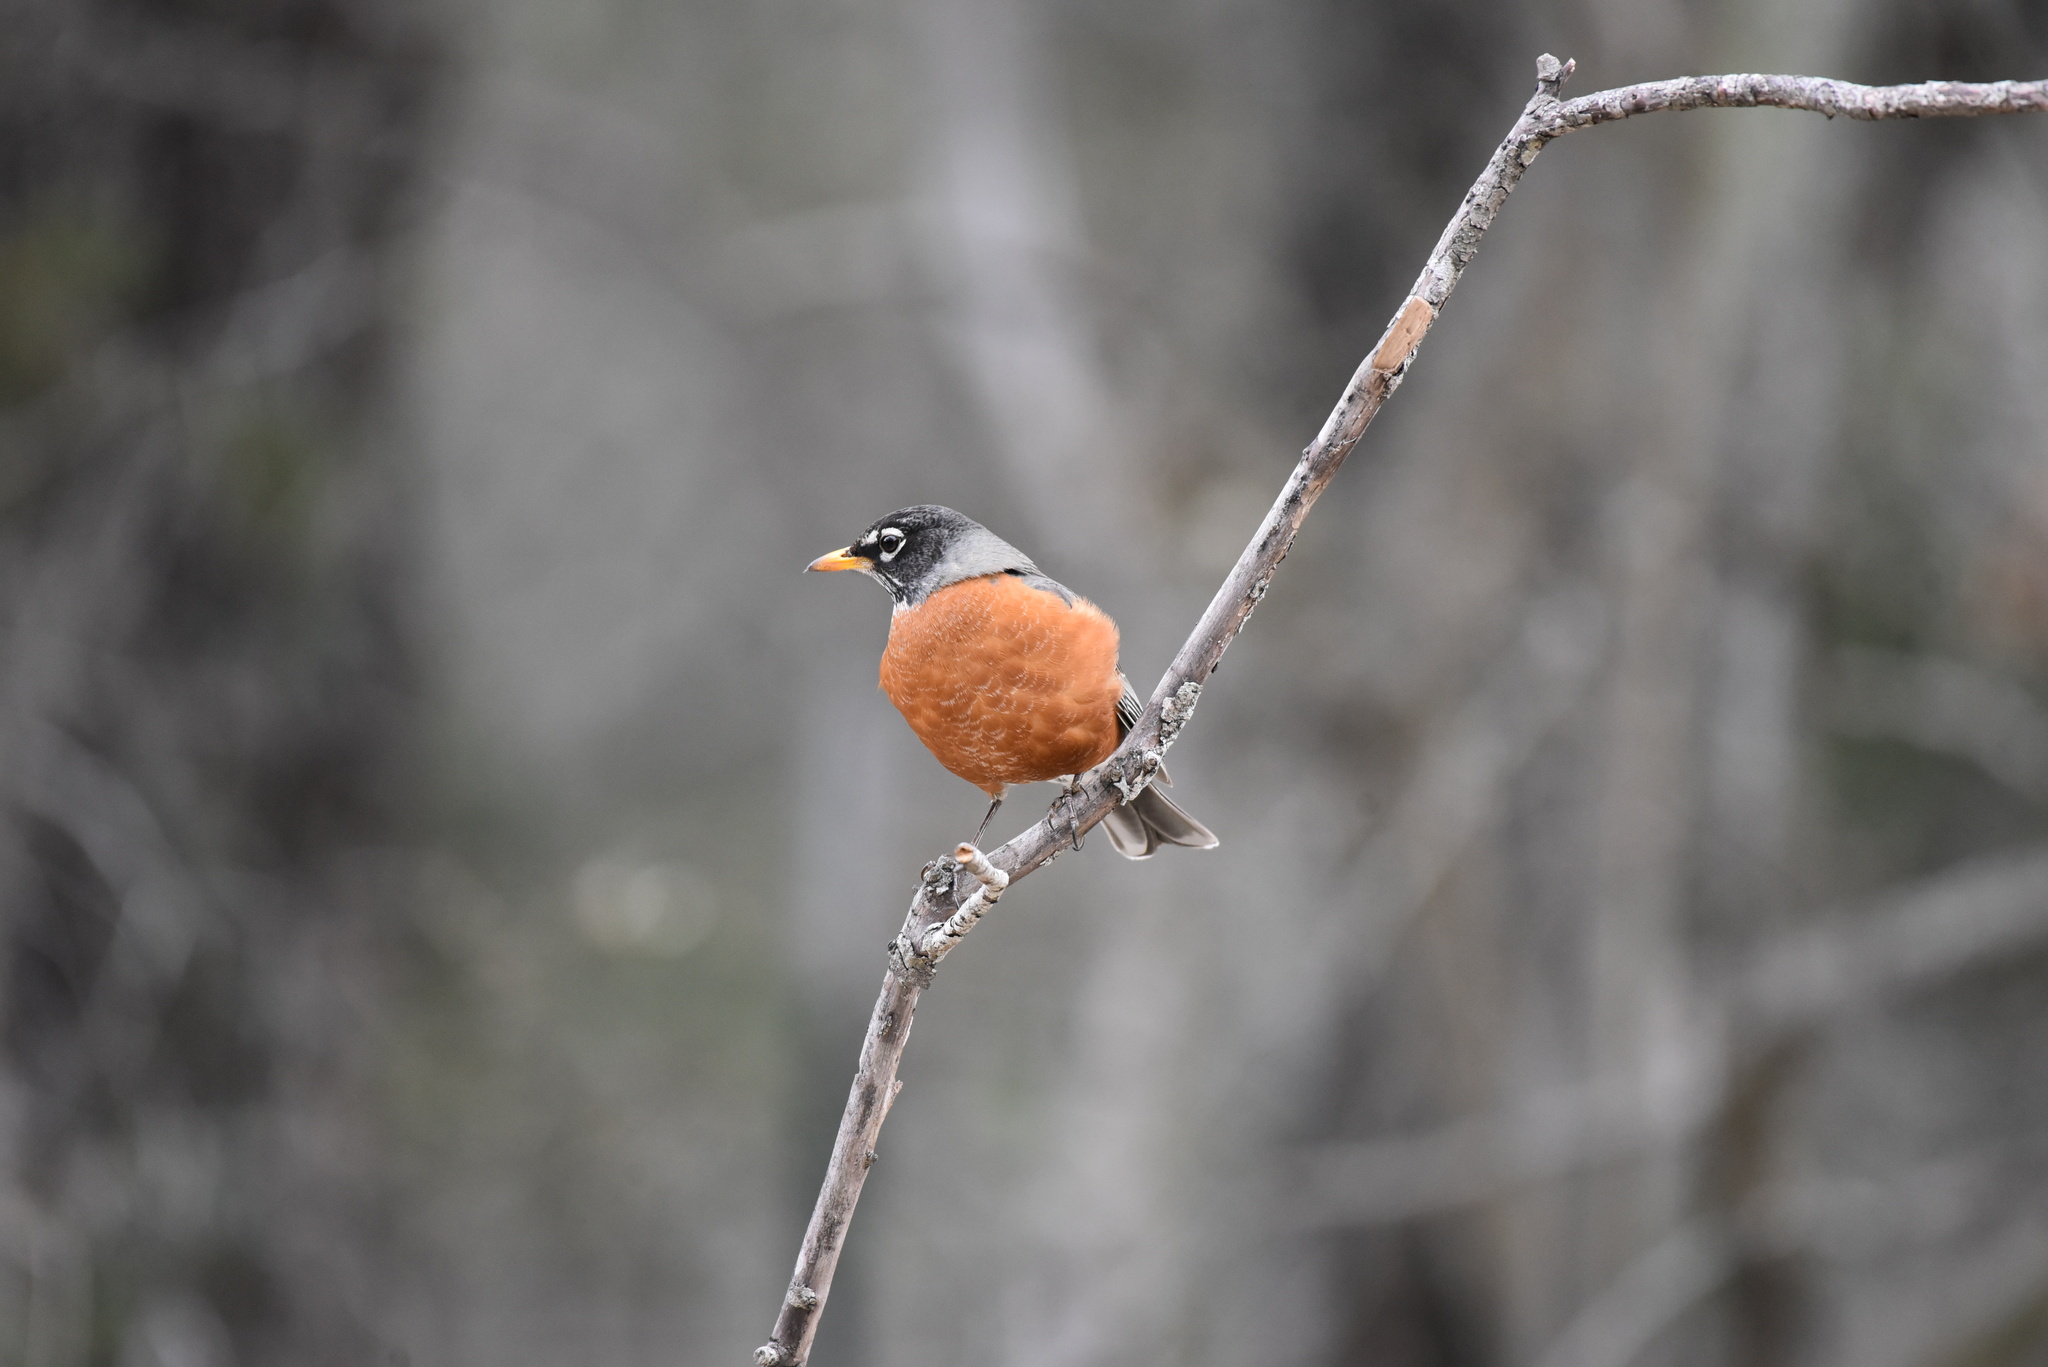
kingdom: Animalia
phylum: Chordata
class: Aves
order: Passeriformes
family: Turdidae
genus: Turdus
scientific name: Turdus migratorius
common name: American robin
